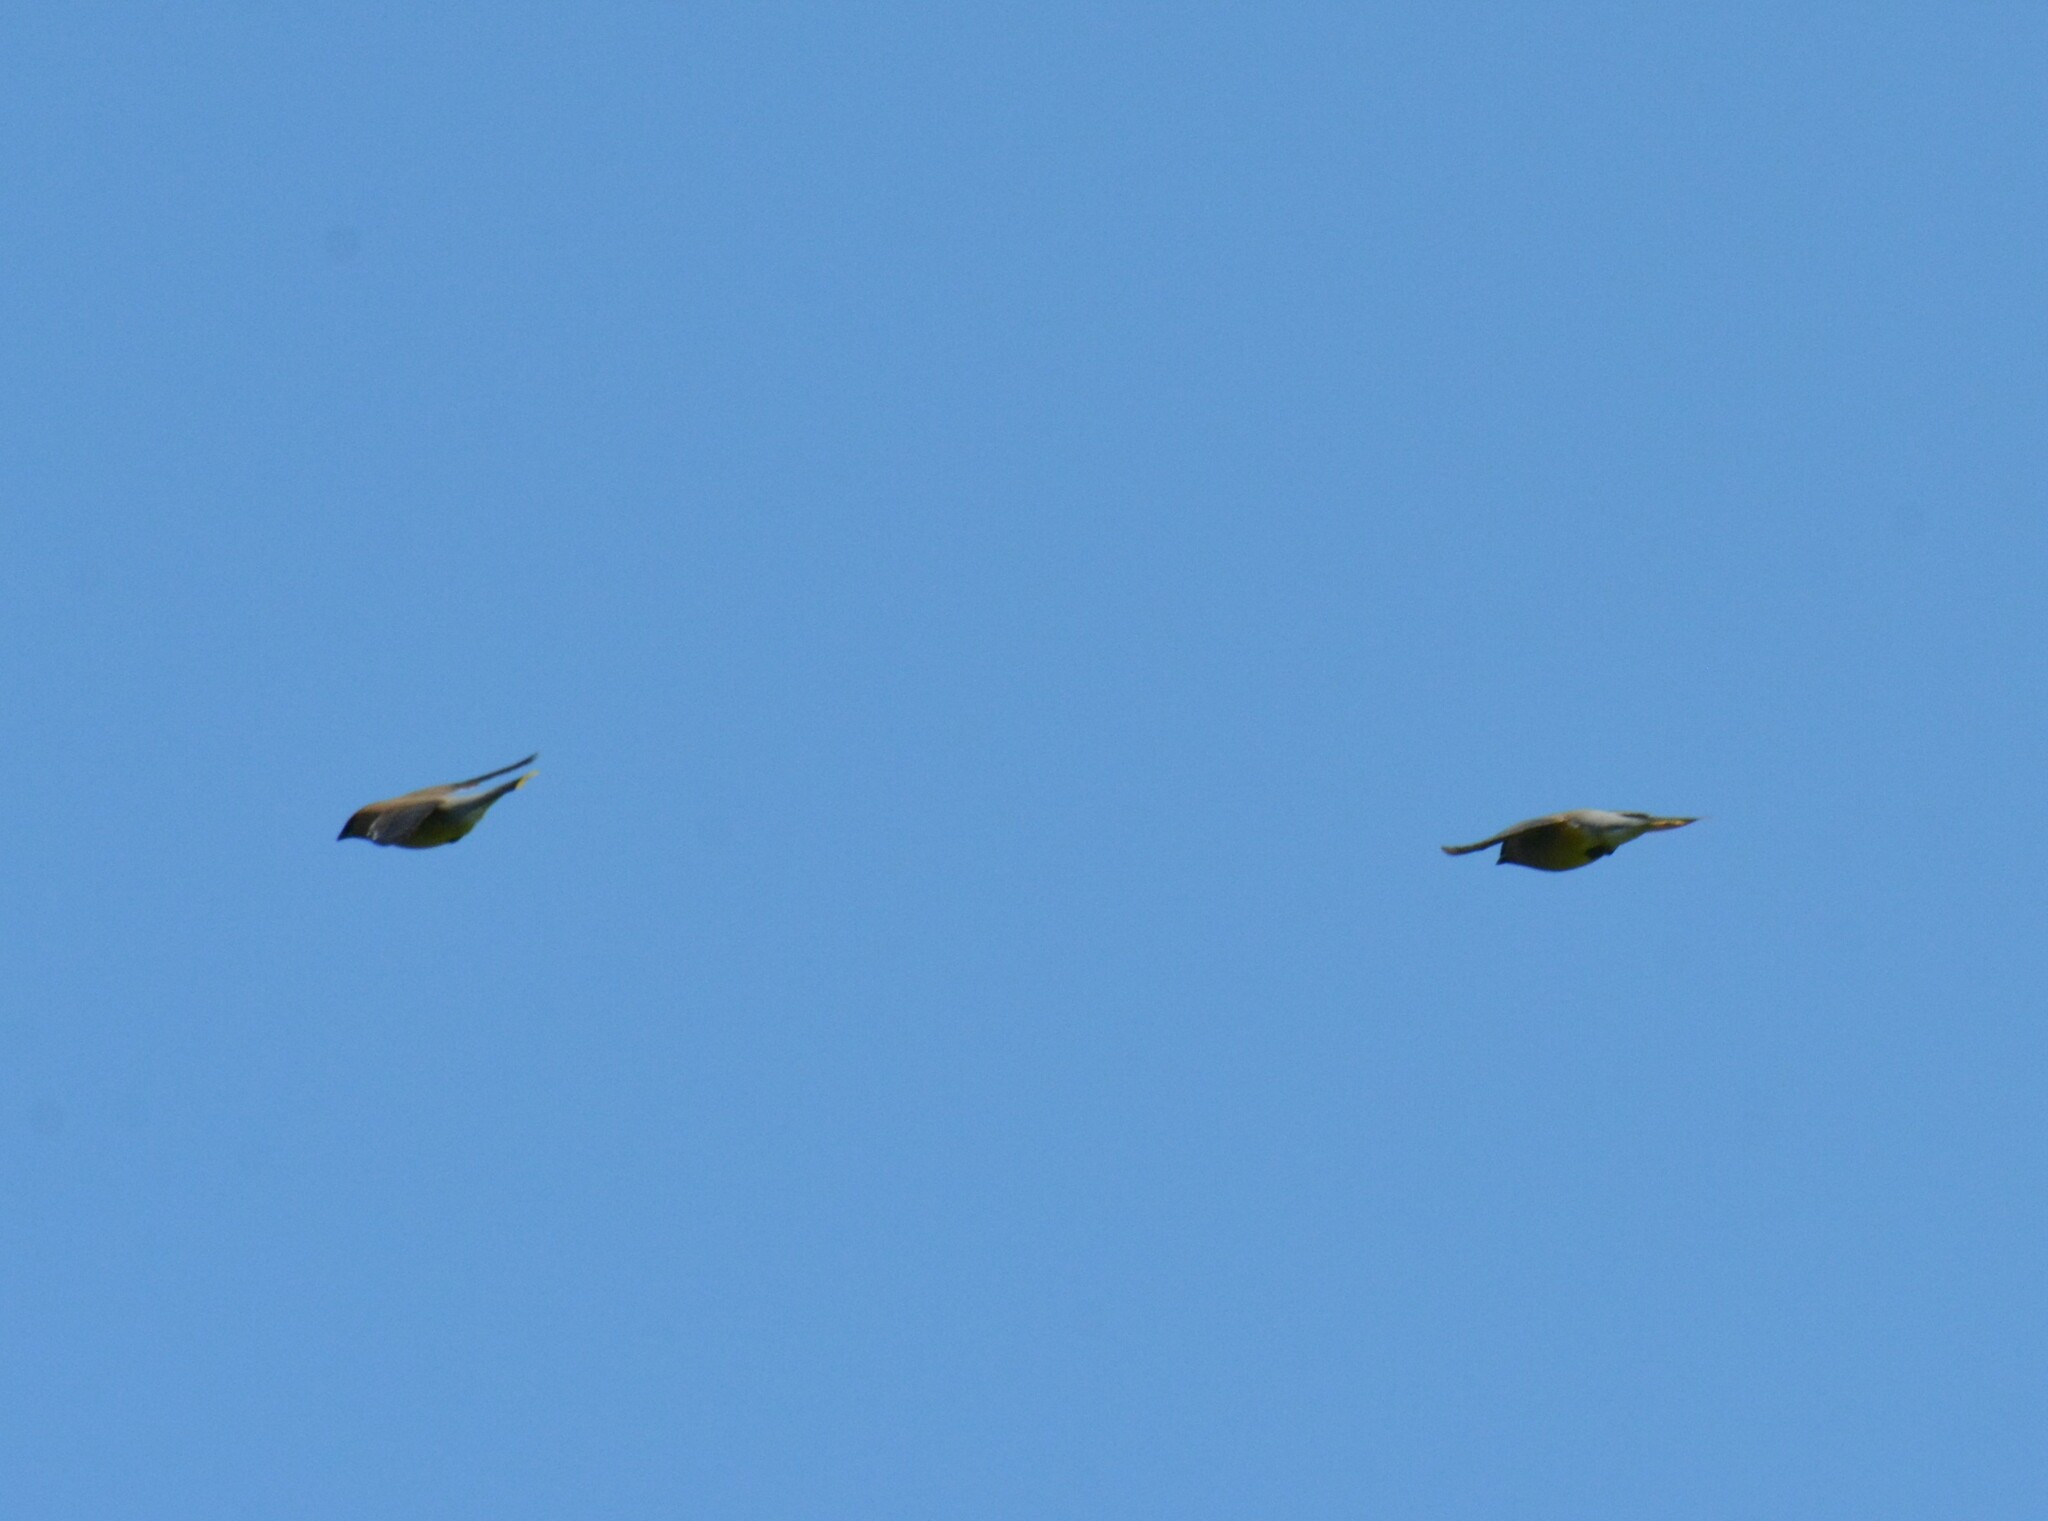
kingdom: Animalia
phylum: Chordata
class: Aves
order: Passeriformes
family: Bombycillidae
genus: Bombycilla
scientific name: Bombycilla cedrorum
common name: Cedar waxwing
